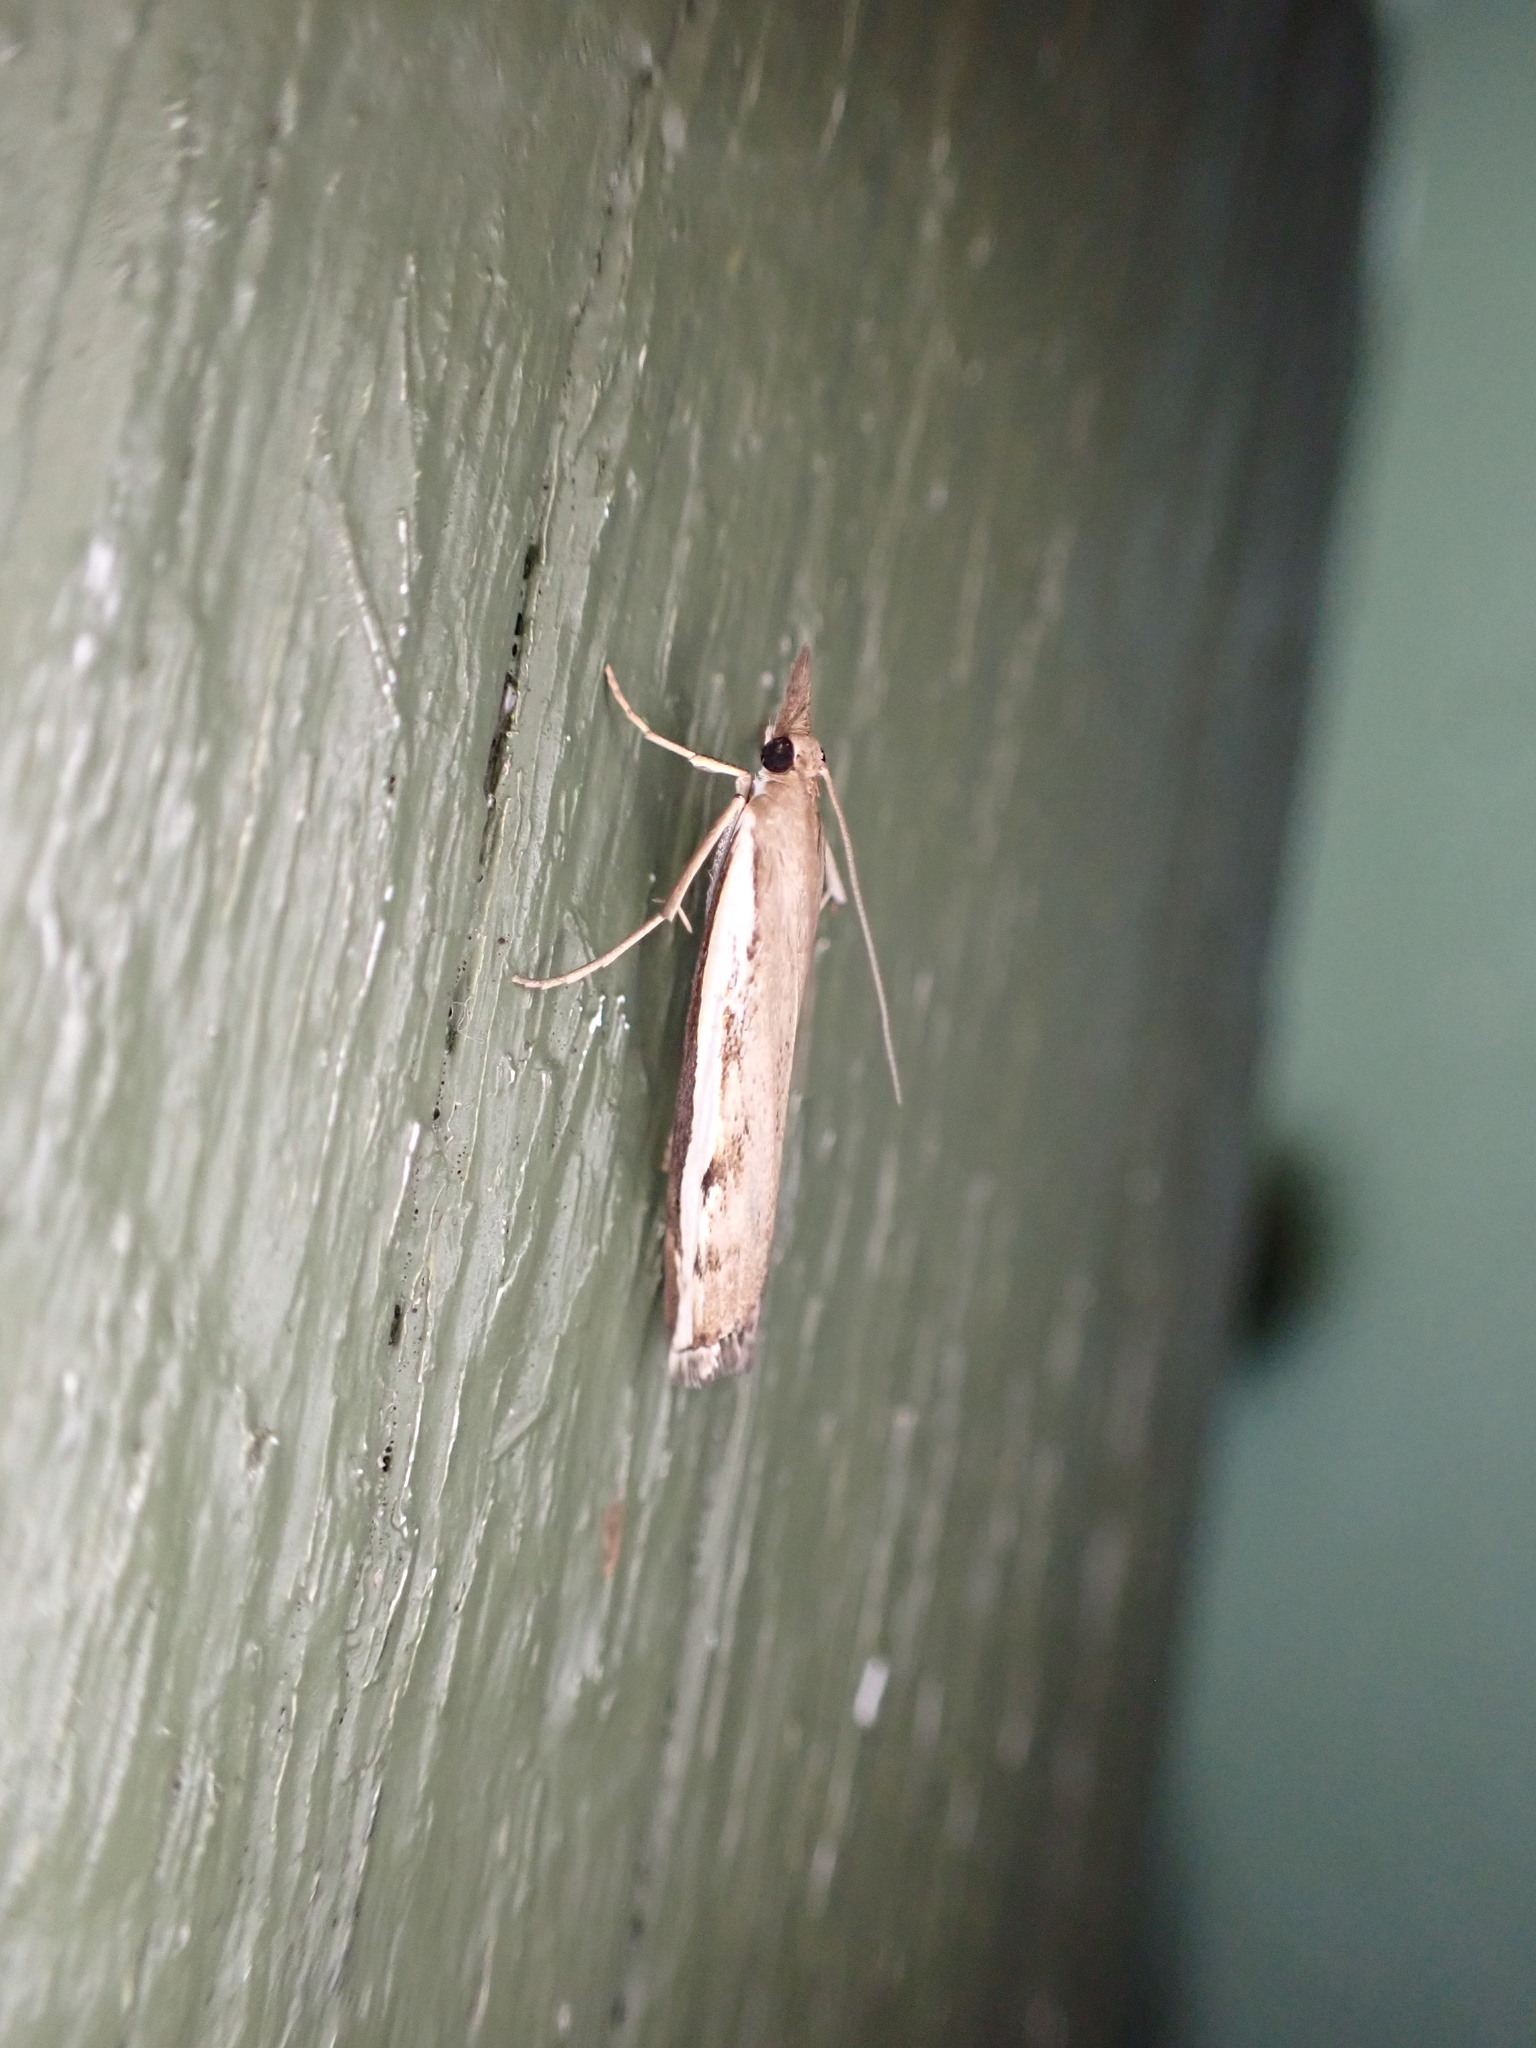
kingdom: Animalia
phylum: Arthropoda
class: Insecta
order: Lepidoptera
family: Crambidae
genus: Orocrambus
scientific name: Orocrambus flexuosellus
